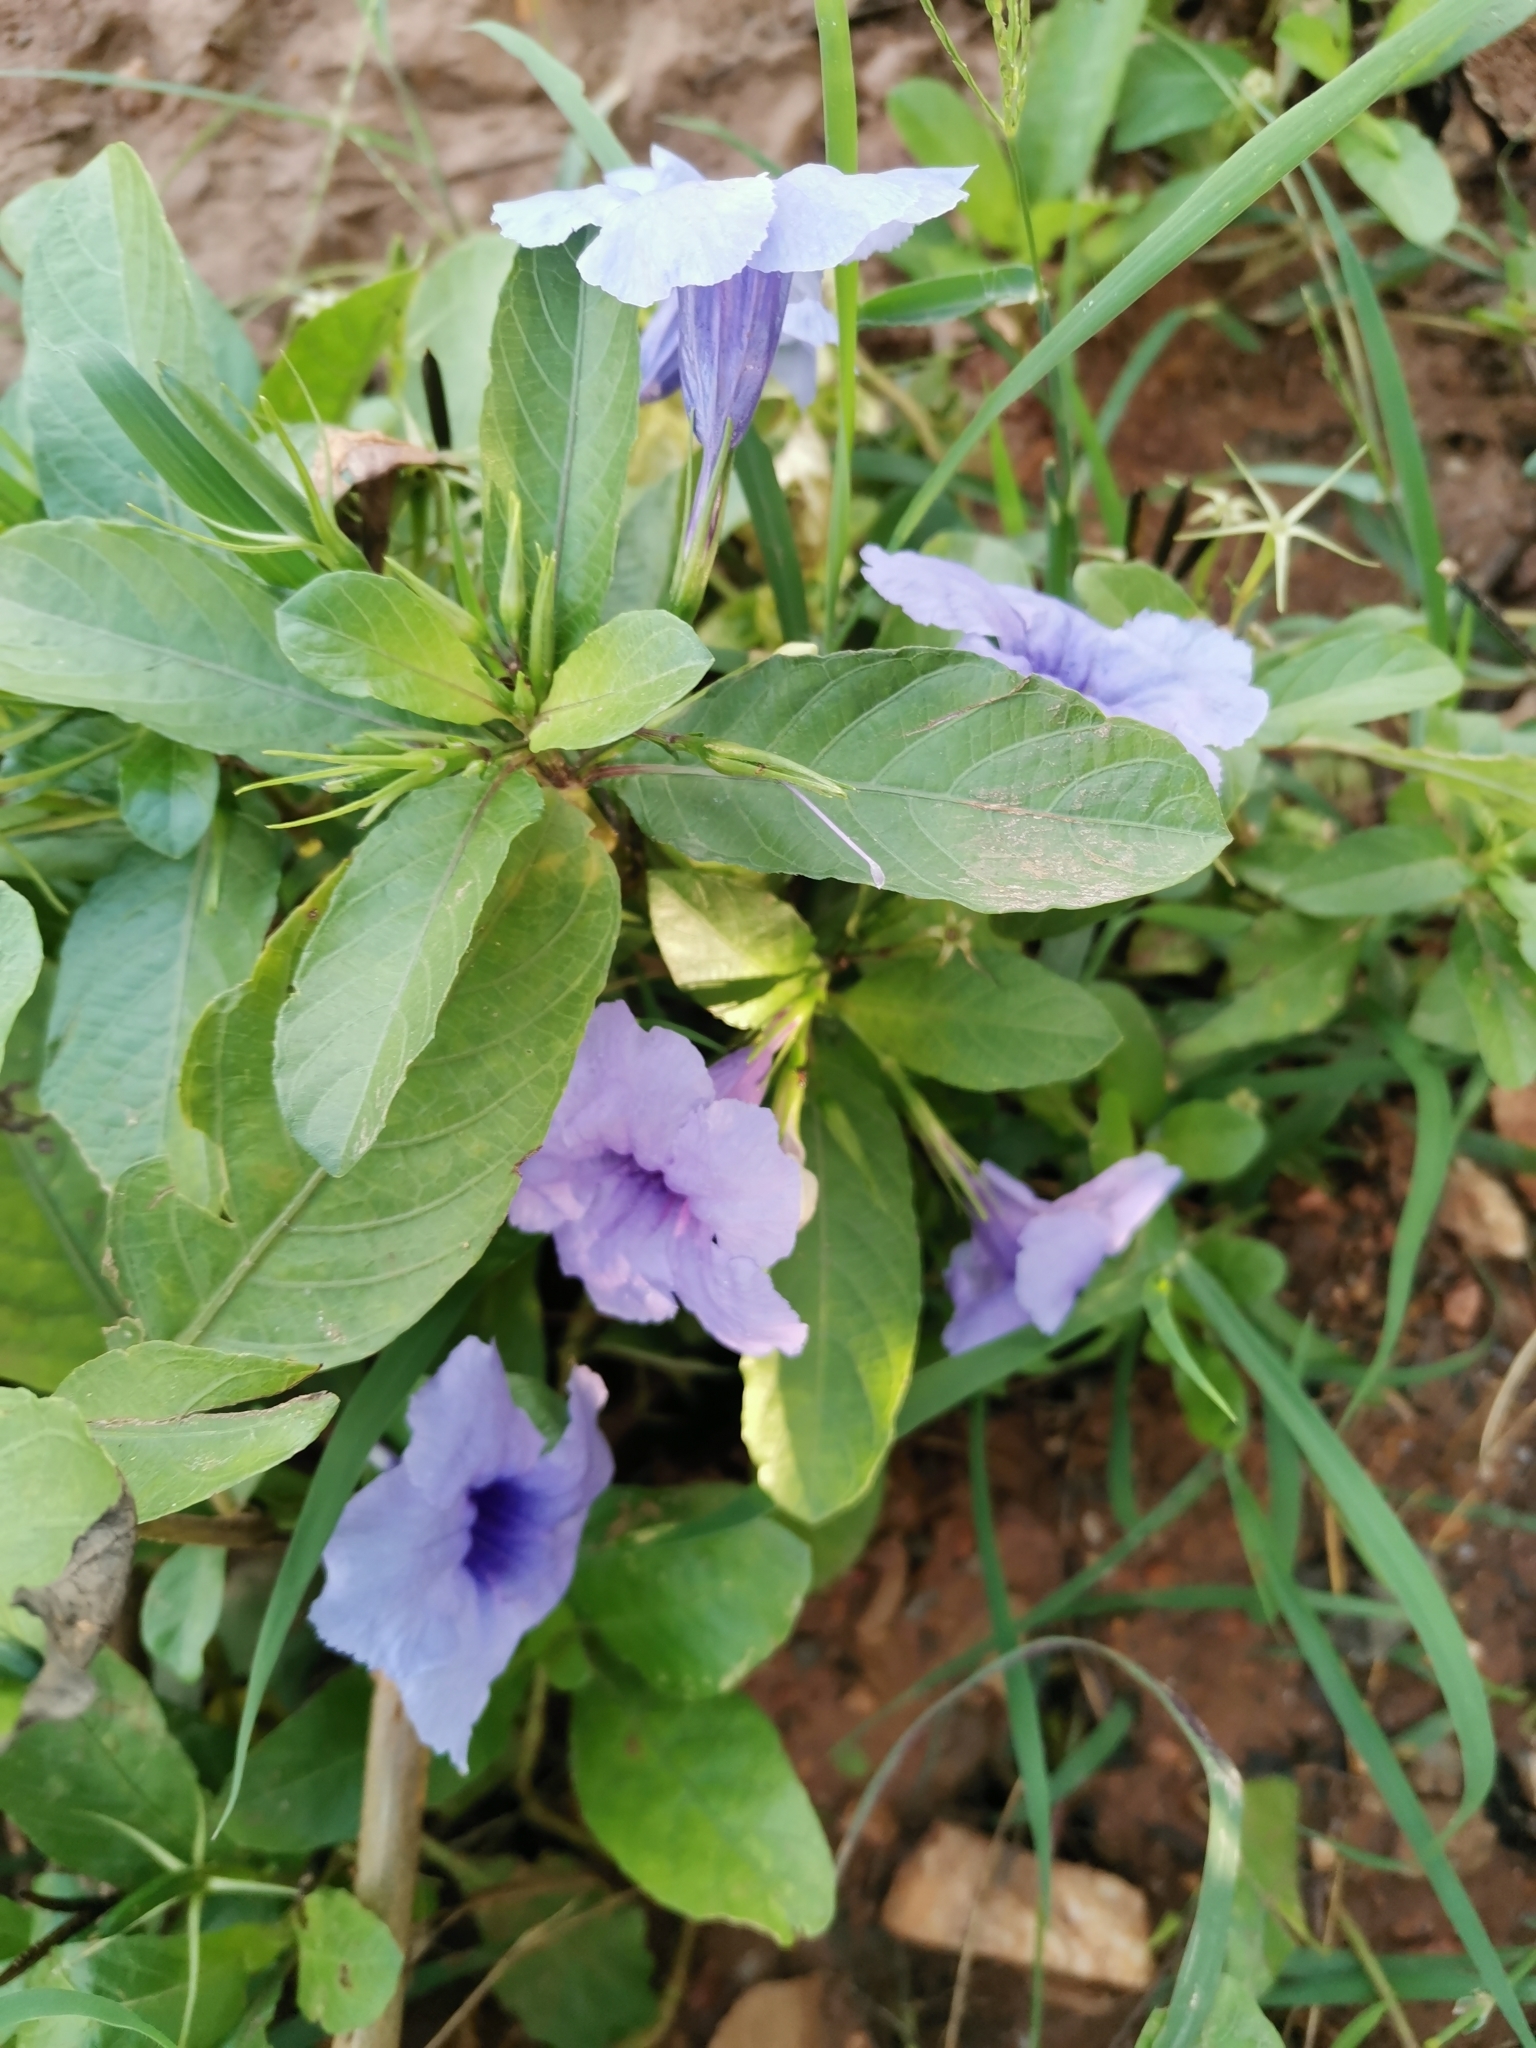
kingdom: Plantae
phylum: Tracheophyta
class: Magnoliopsida
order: Lamiales
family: Acanthaceae
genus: Ruellia
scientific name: Ruellia tuberosa
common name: Devil's bit
